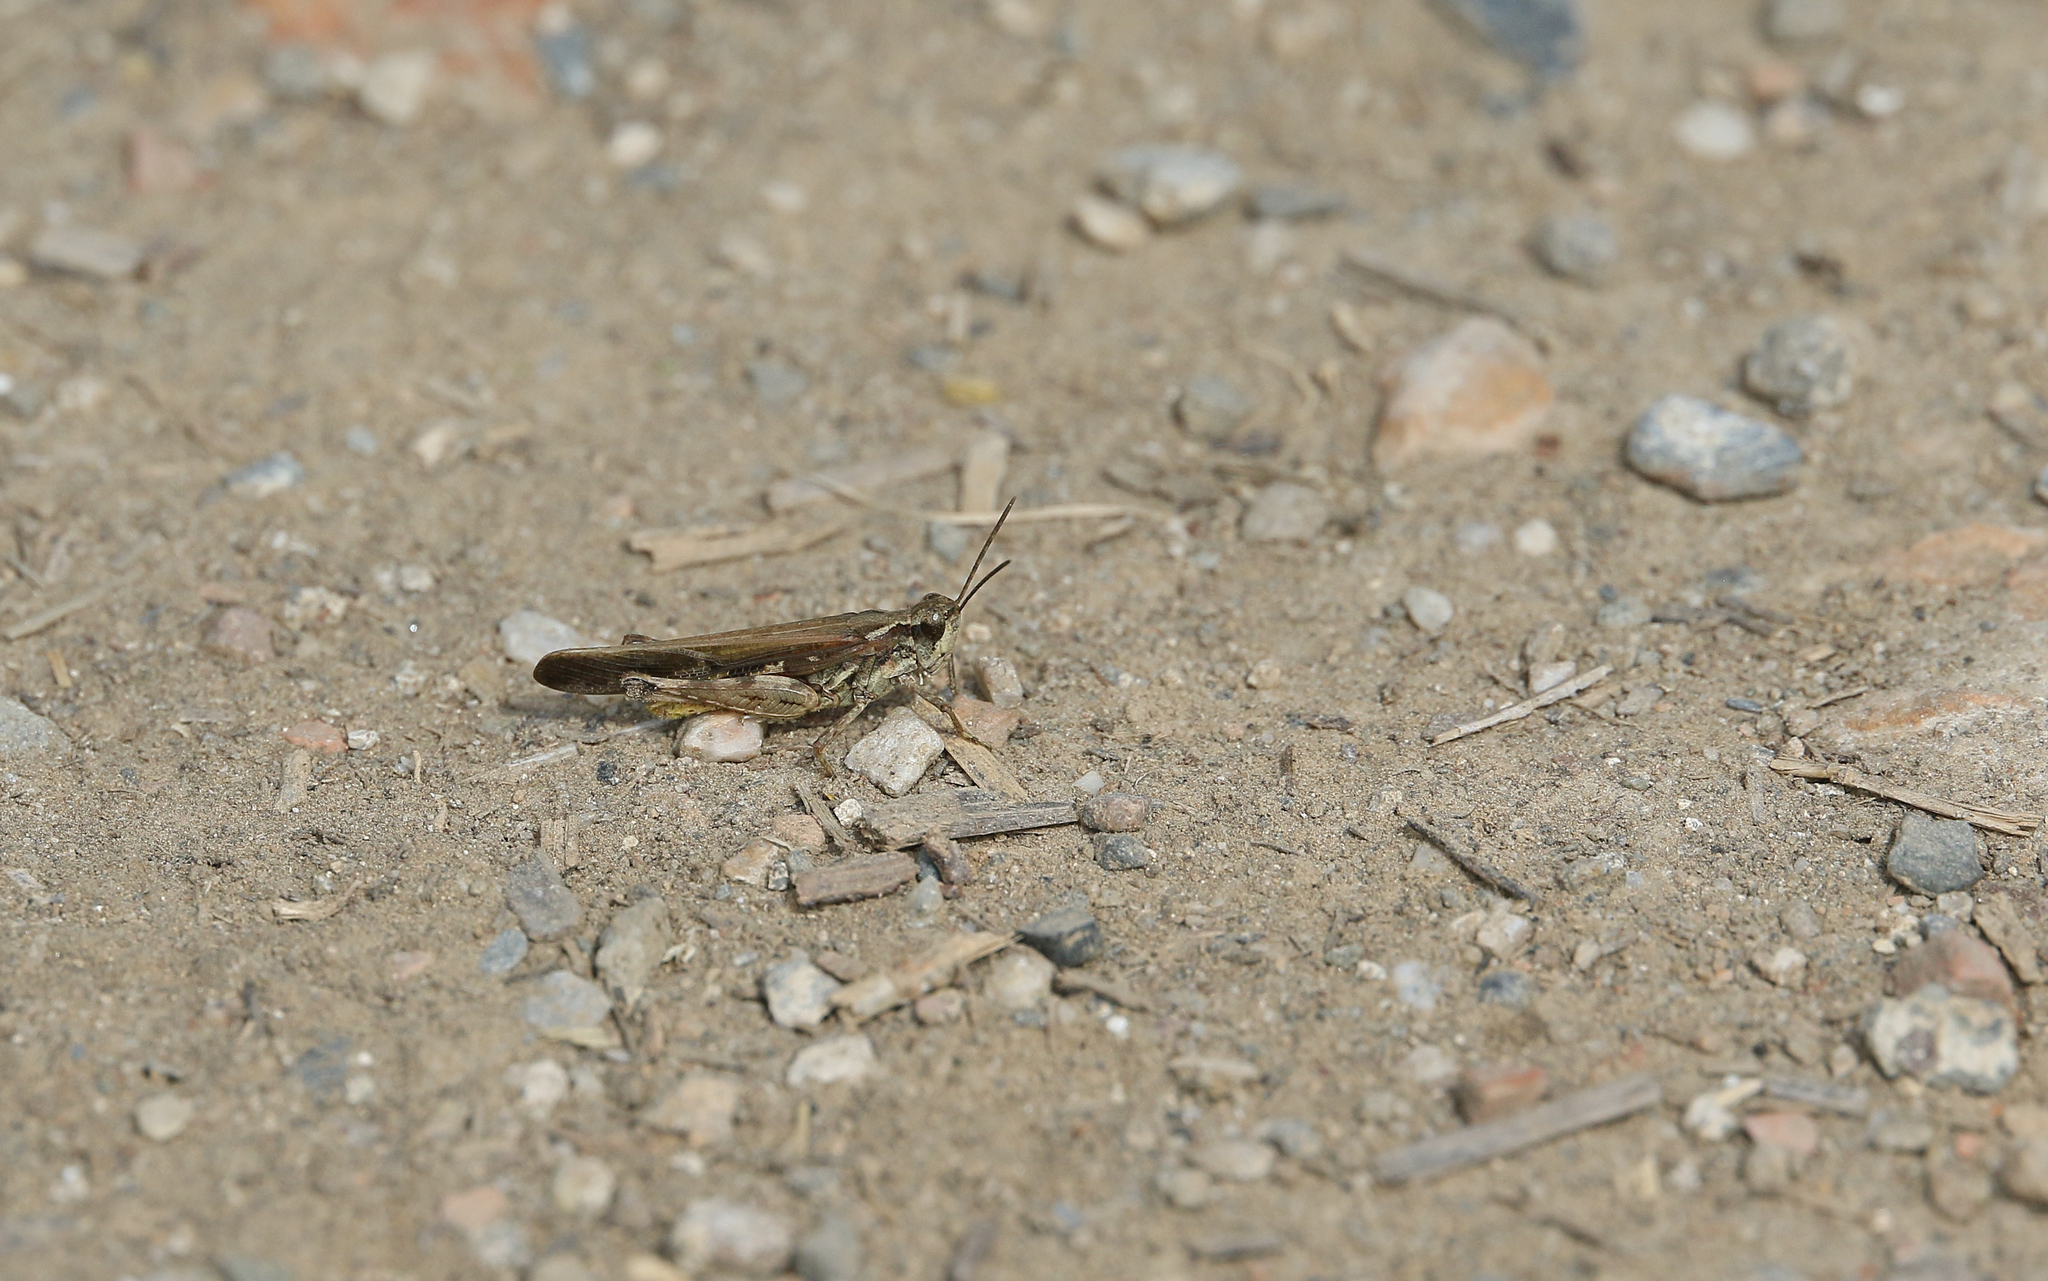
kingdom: Animalia
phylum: Arthropoda
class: Insecta
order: Orthoptera
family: Acrididae
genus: Aiolopus
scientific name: Aiolopus puissanti
